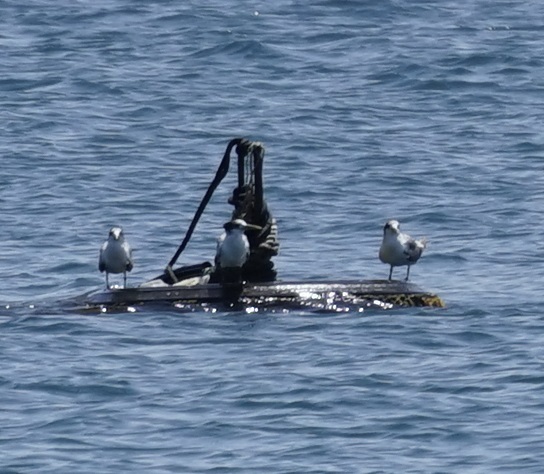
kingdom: Animalia
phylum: Chordata
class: Aves
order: Charadriiformes
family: Laridae
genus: Thalasseus
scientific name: Thalasseus bergii
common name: Greater crested tern
